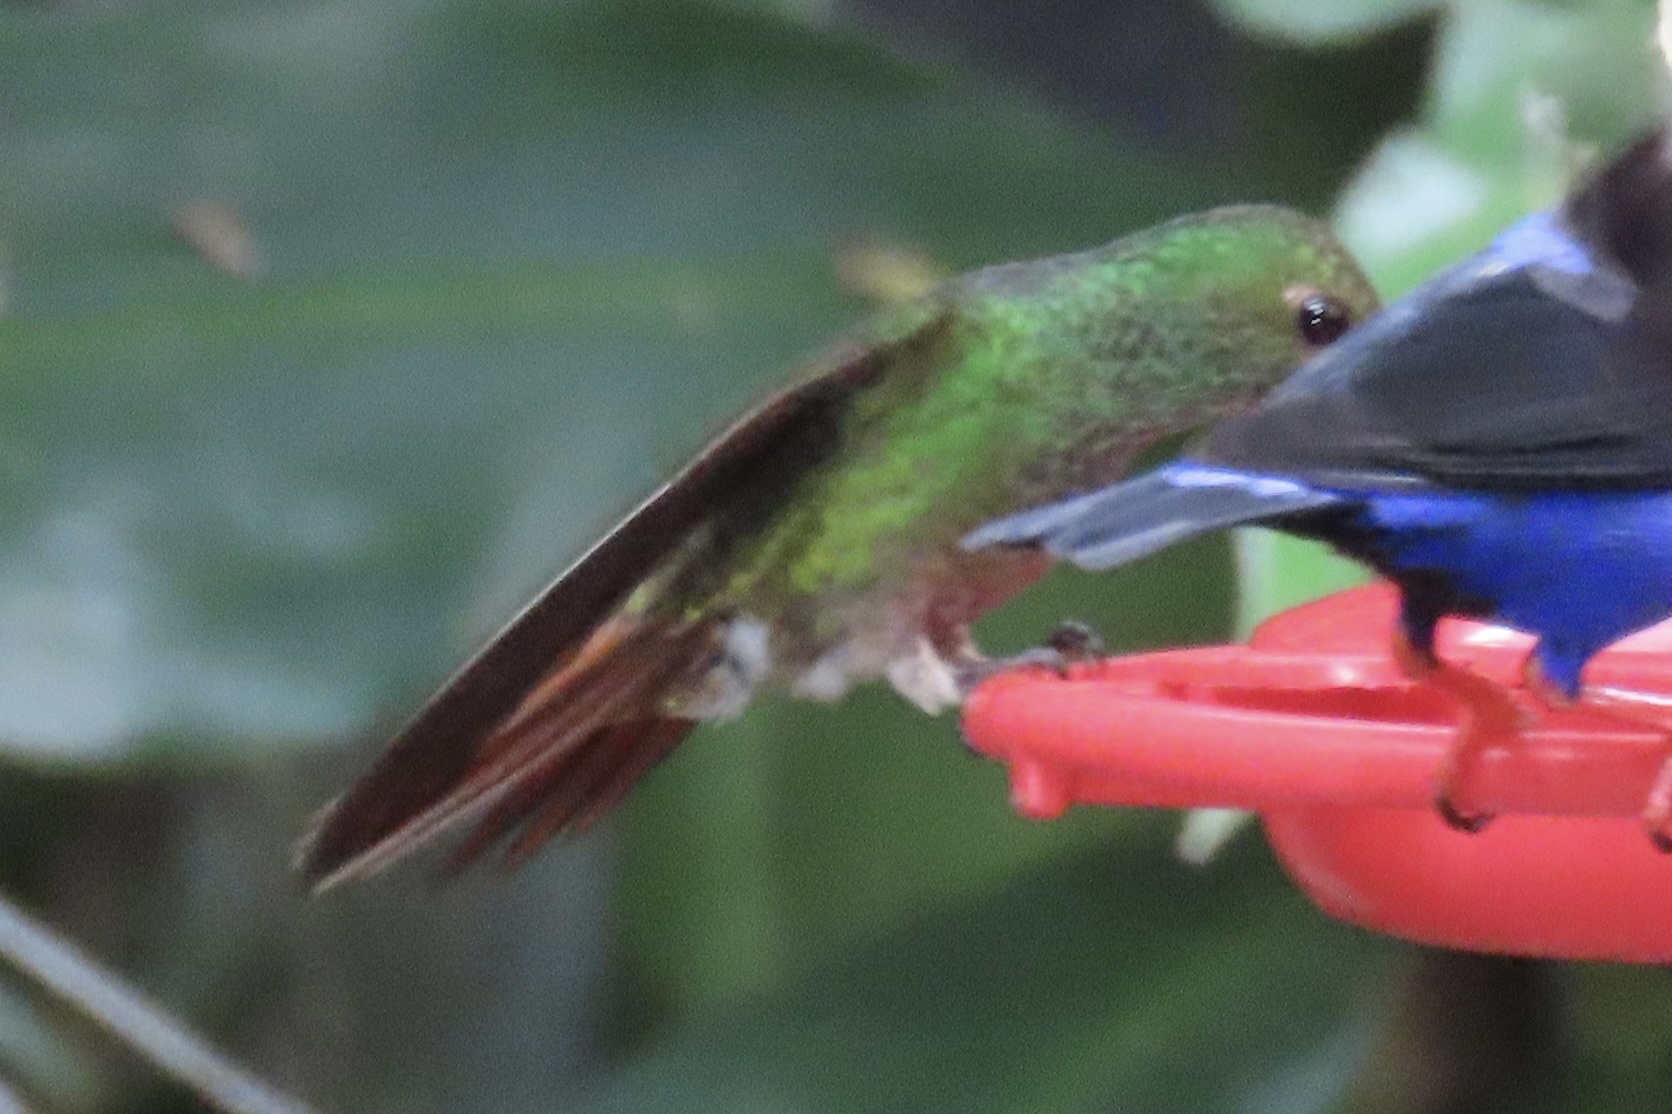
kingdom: Animalia
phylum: Chordata
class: Aves
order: Apodiformes
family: Trochilidae
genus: Amazilia
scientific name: Amazilia tzacatl
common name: Rufous-tailed hummingbird
